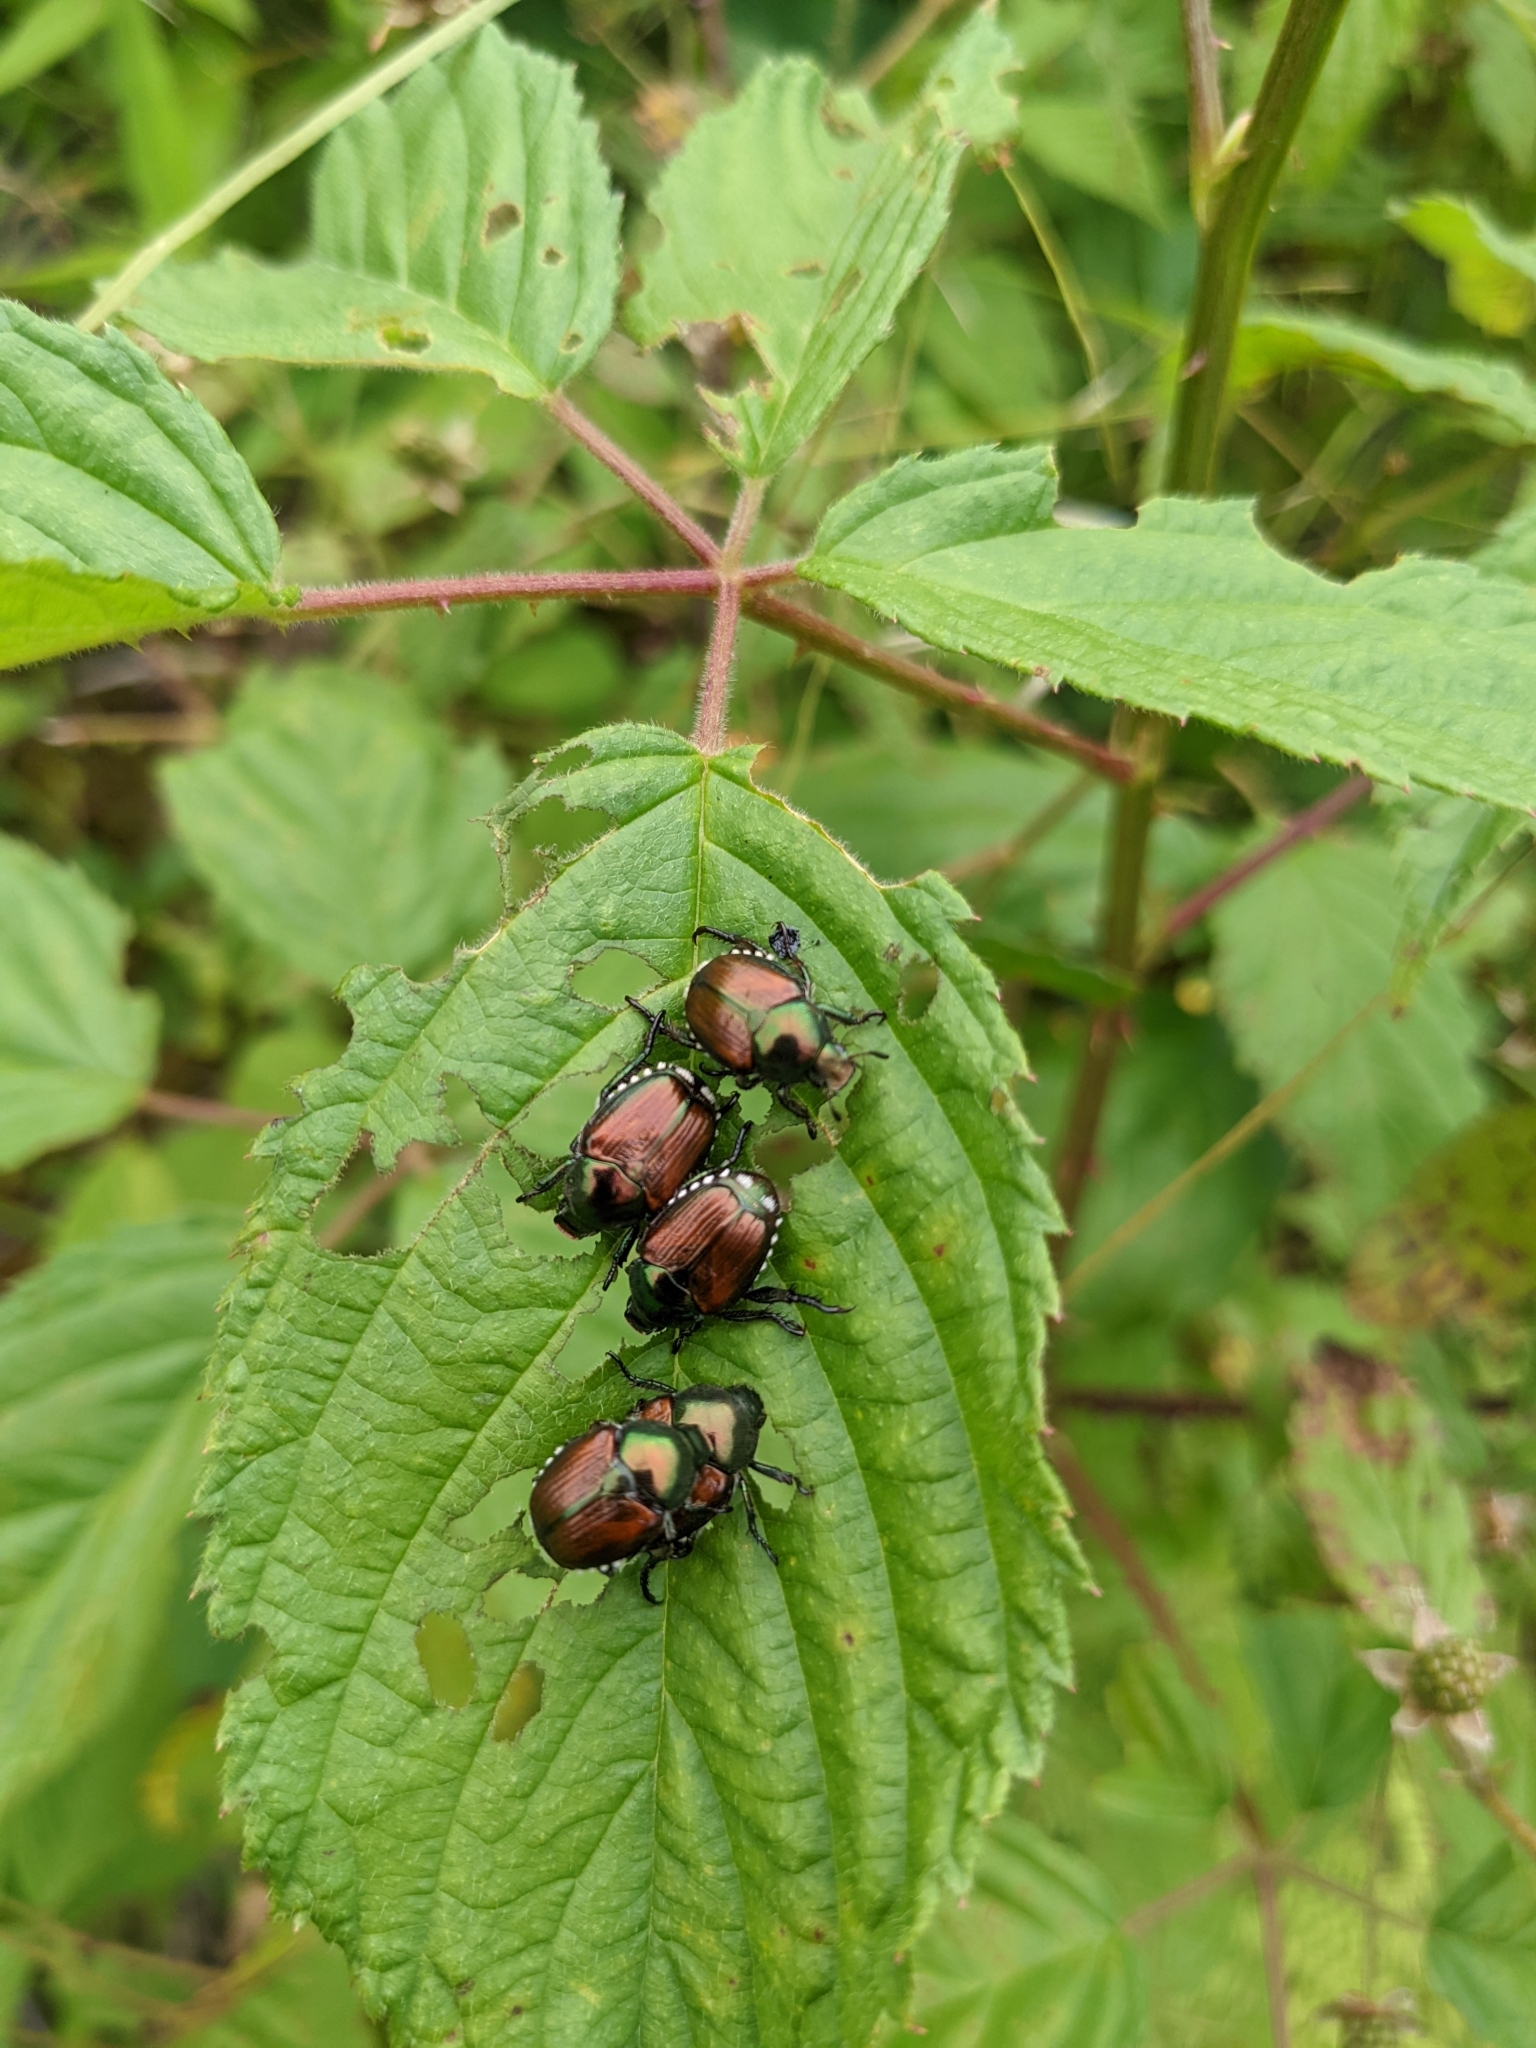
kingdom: Animalia
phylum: Arthropoda
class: Insecta
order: Coleoptera
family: Scarabaeidae
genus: Popillia
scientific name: Popillia japonica
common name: Japanese beetle
